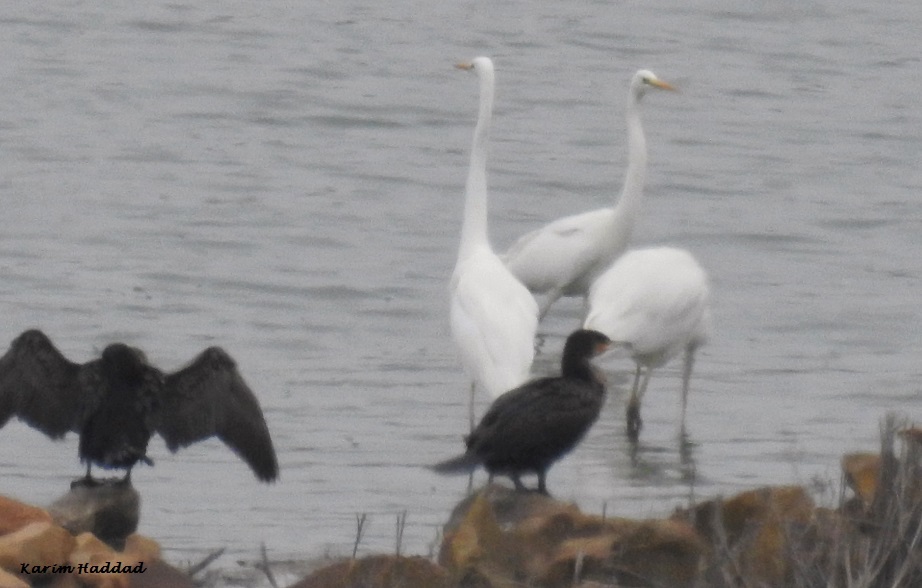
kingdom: Animalia
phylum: Chordata
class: Aves
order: Pelecaniformes
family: Ardeidae
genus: Ardea
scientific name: Ardea alba
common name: Great egret
